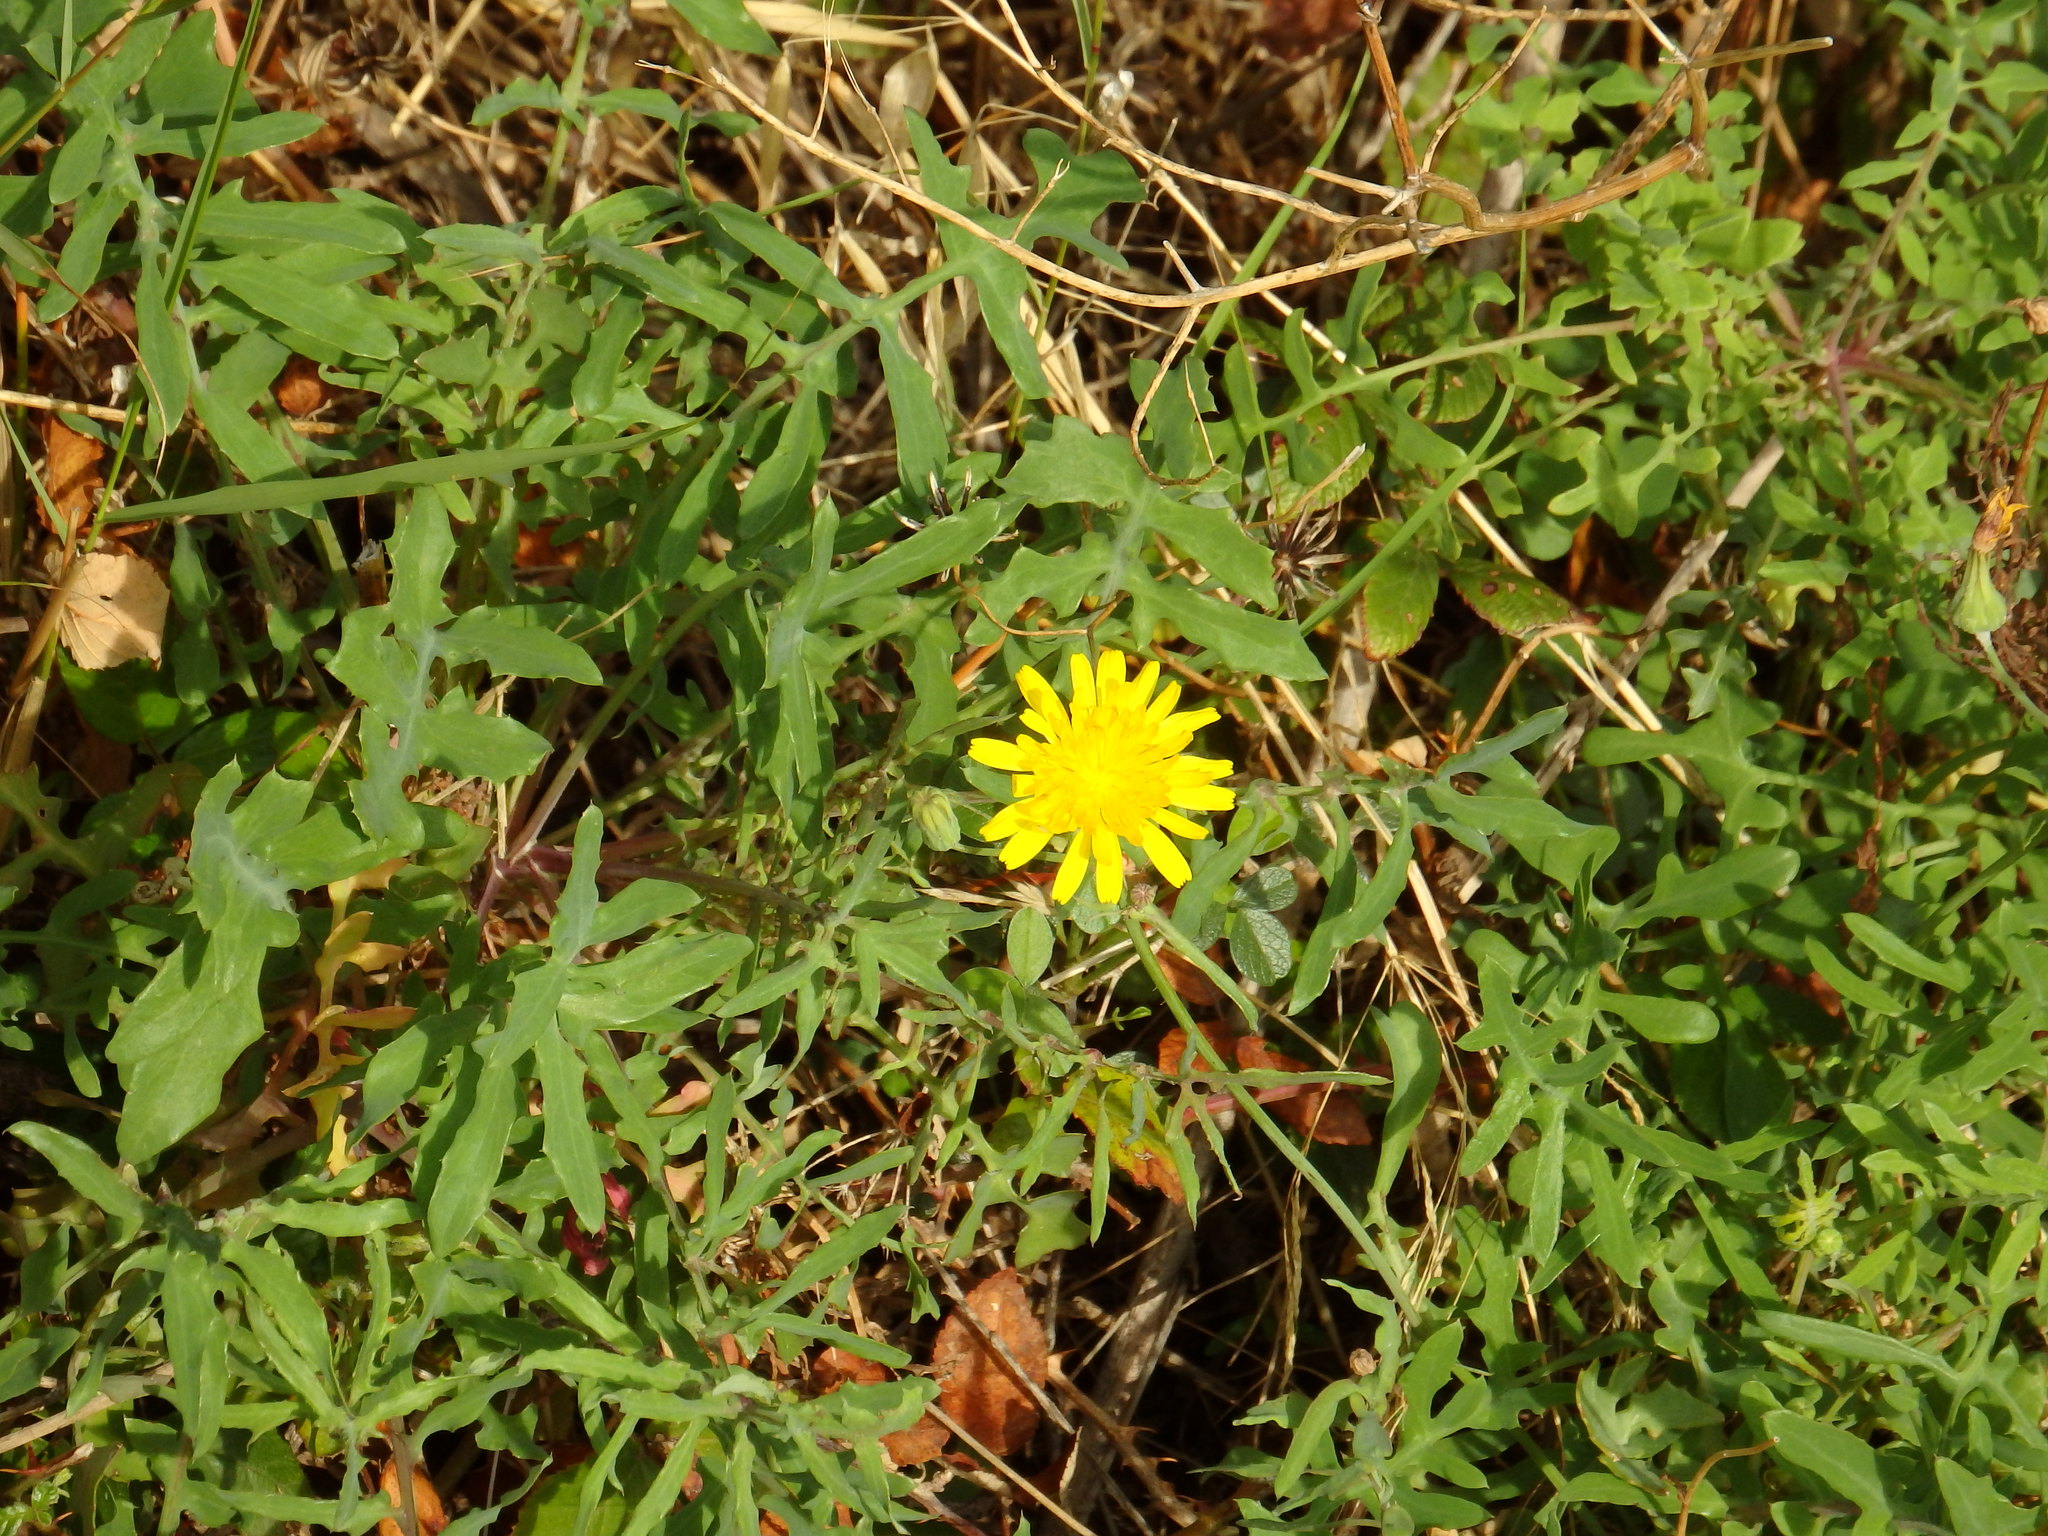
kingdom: Plantae
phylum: Tracheophyta
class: Magnoliopsida
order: Asterales
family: Asteraceae
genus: Sonchus
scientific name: Sonchus tenerrimus
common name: Clammy sowthistle
